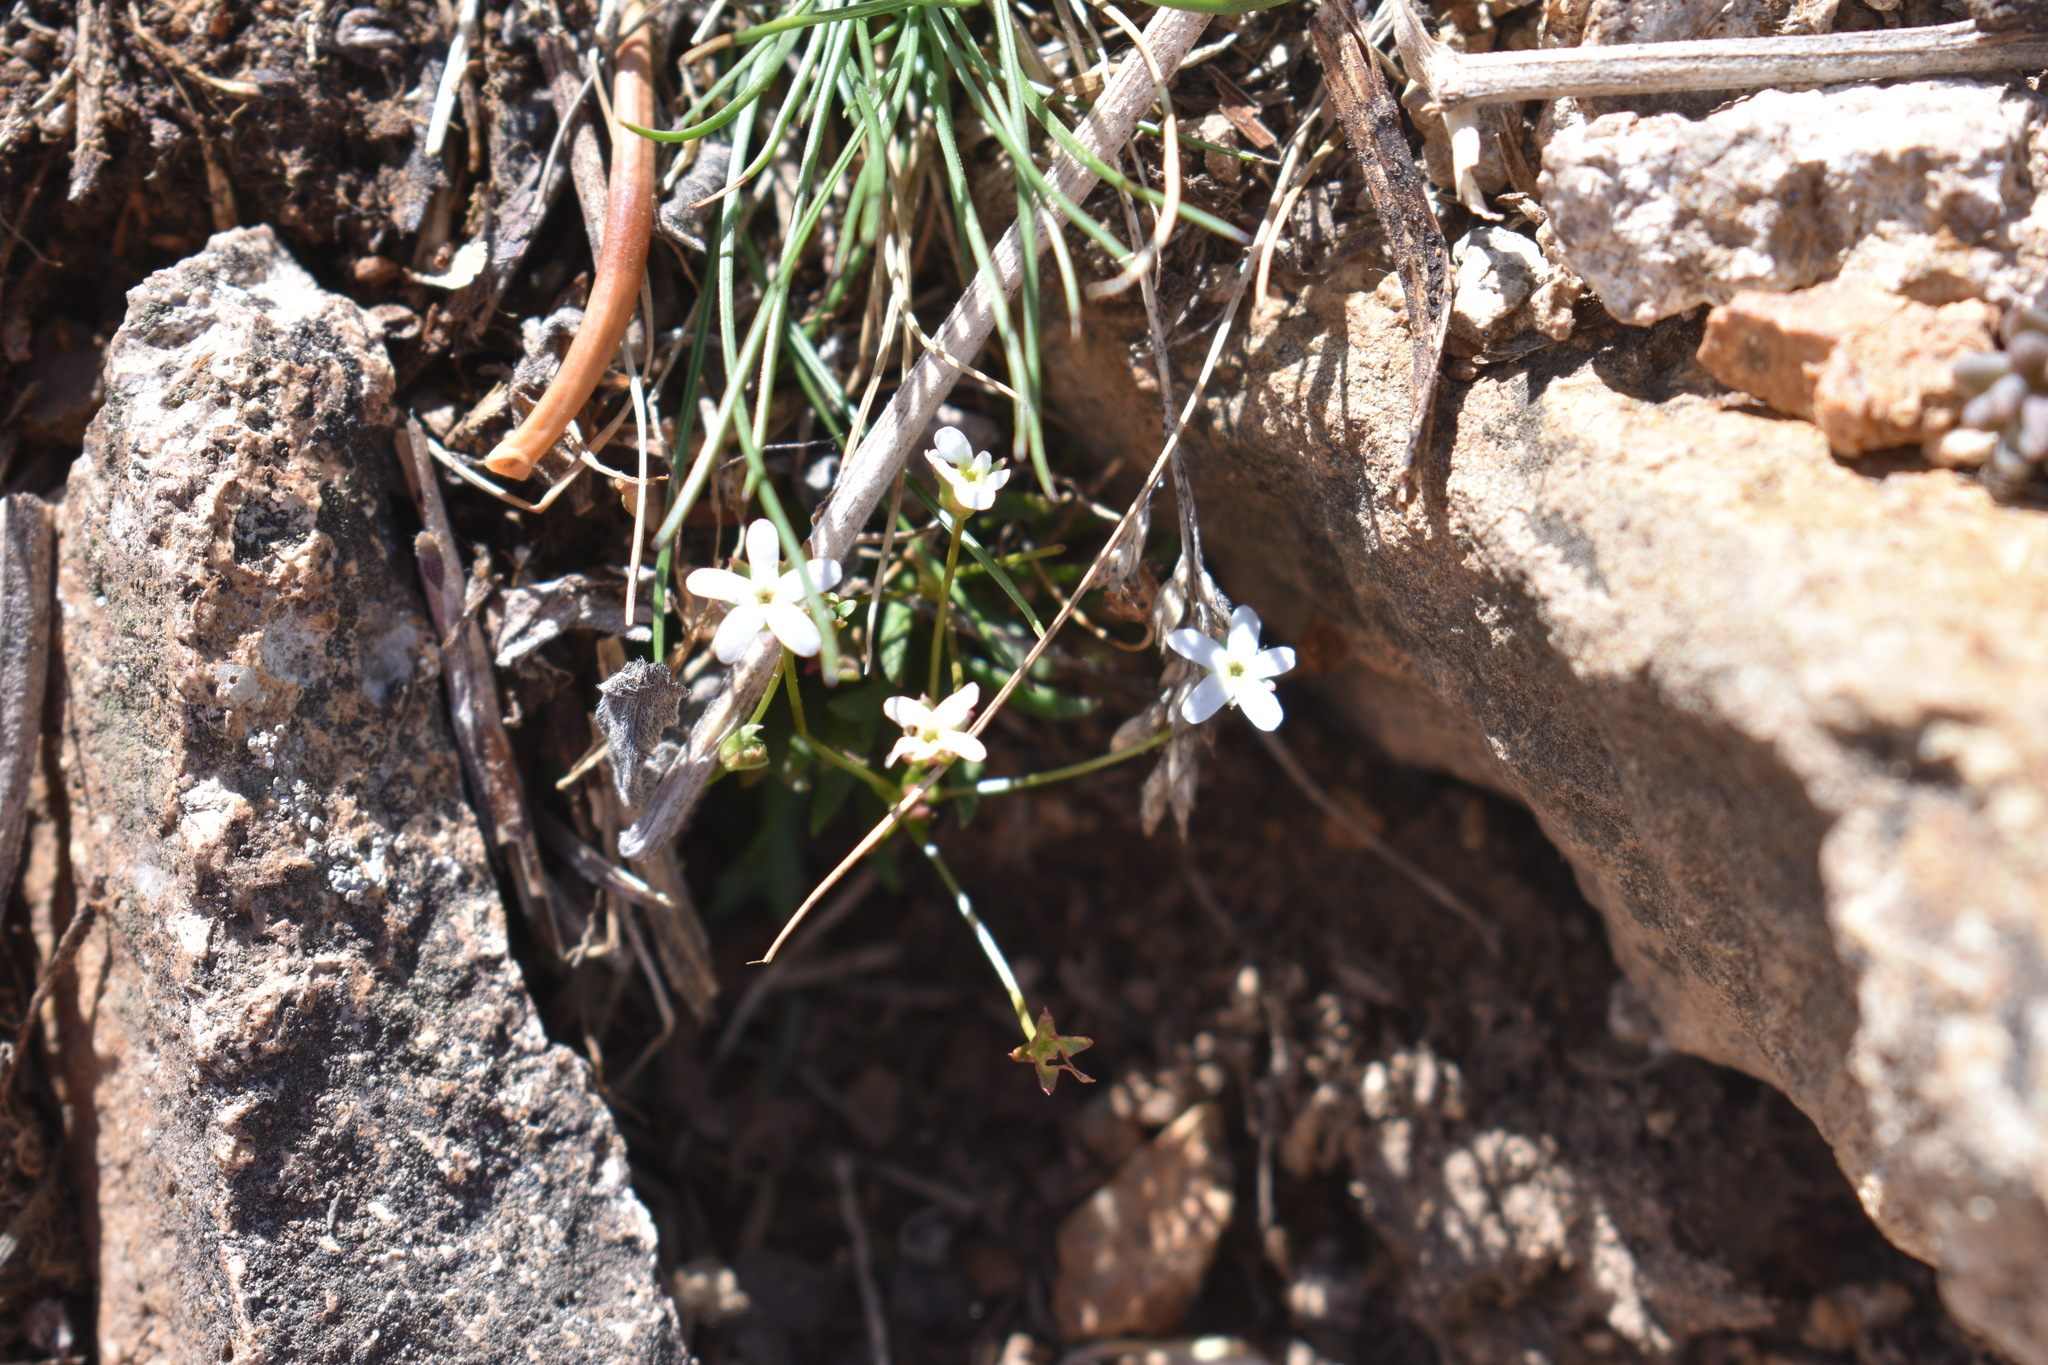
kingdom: Plantae
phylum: Tracheophyta
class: Magnoliopsida
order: Ericales
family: Primulaceae
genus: Androsace
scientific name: Androsace septentrionalis
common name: Hairy northern fairy-candelabra
